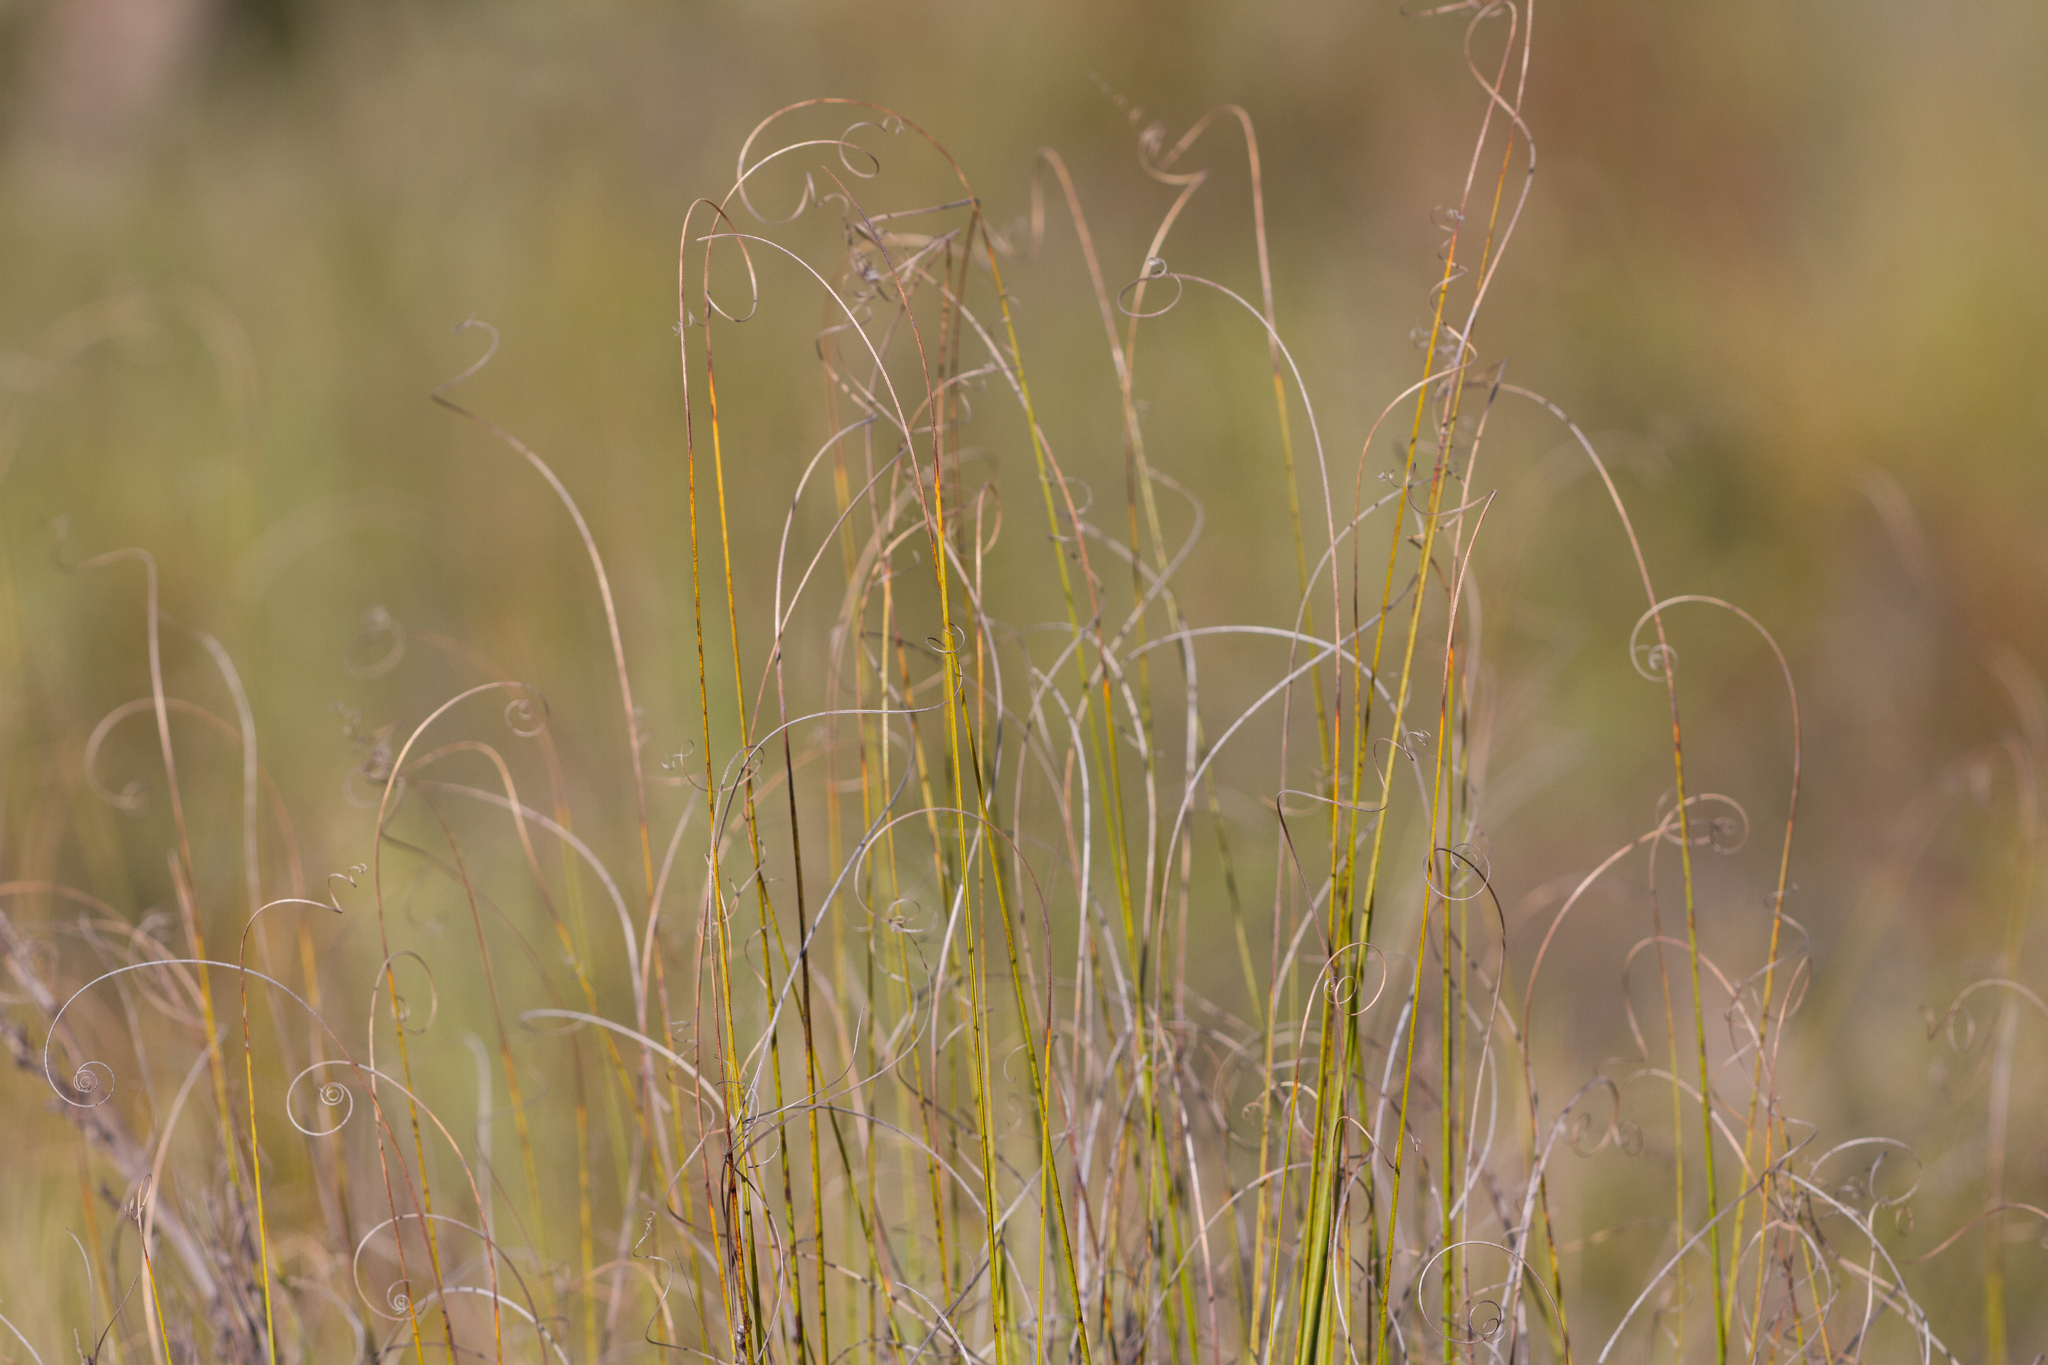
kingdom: Plantae
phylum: Tracheophyta
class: Liliopsida
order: Poales
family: Cyperaceae
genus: Gahnia
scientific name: Gahnia ancistrophylla
